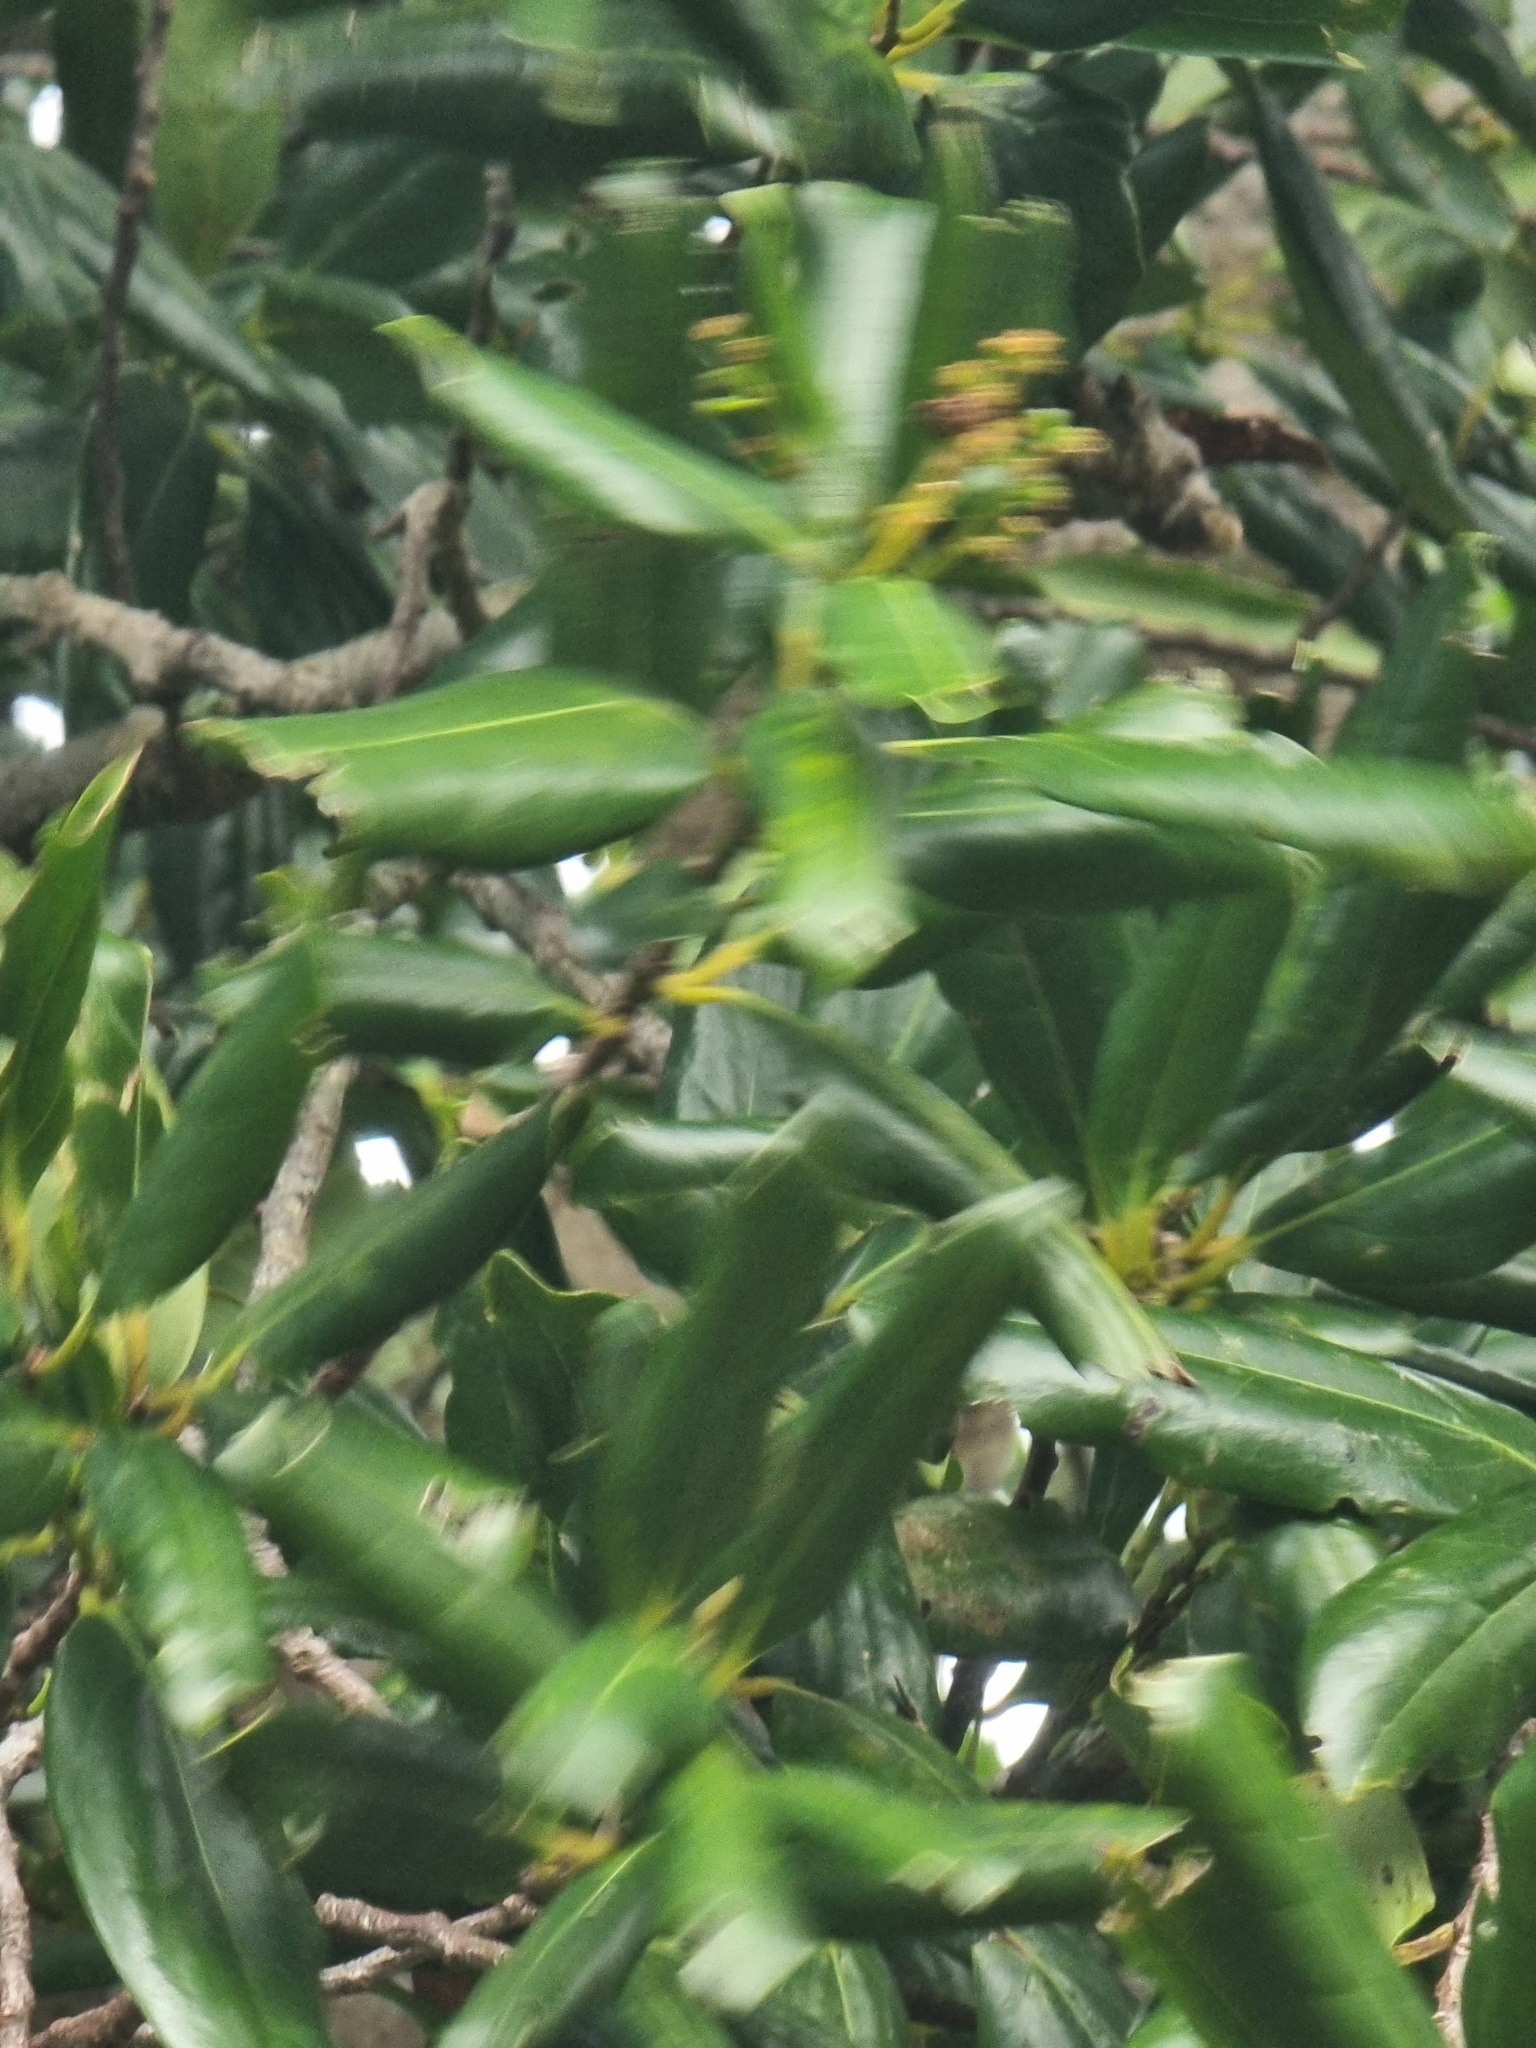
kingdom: Plantae
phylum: Tracheophyta
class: Magnoliopsida
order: Laurales
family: Lauraceae
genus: Mespilodaphne
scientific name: Mespilodaphne foetens
